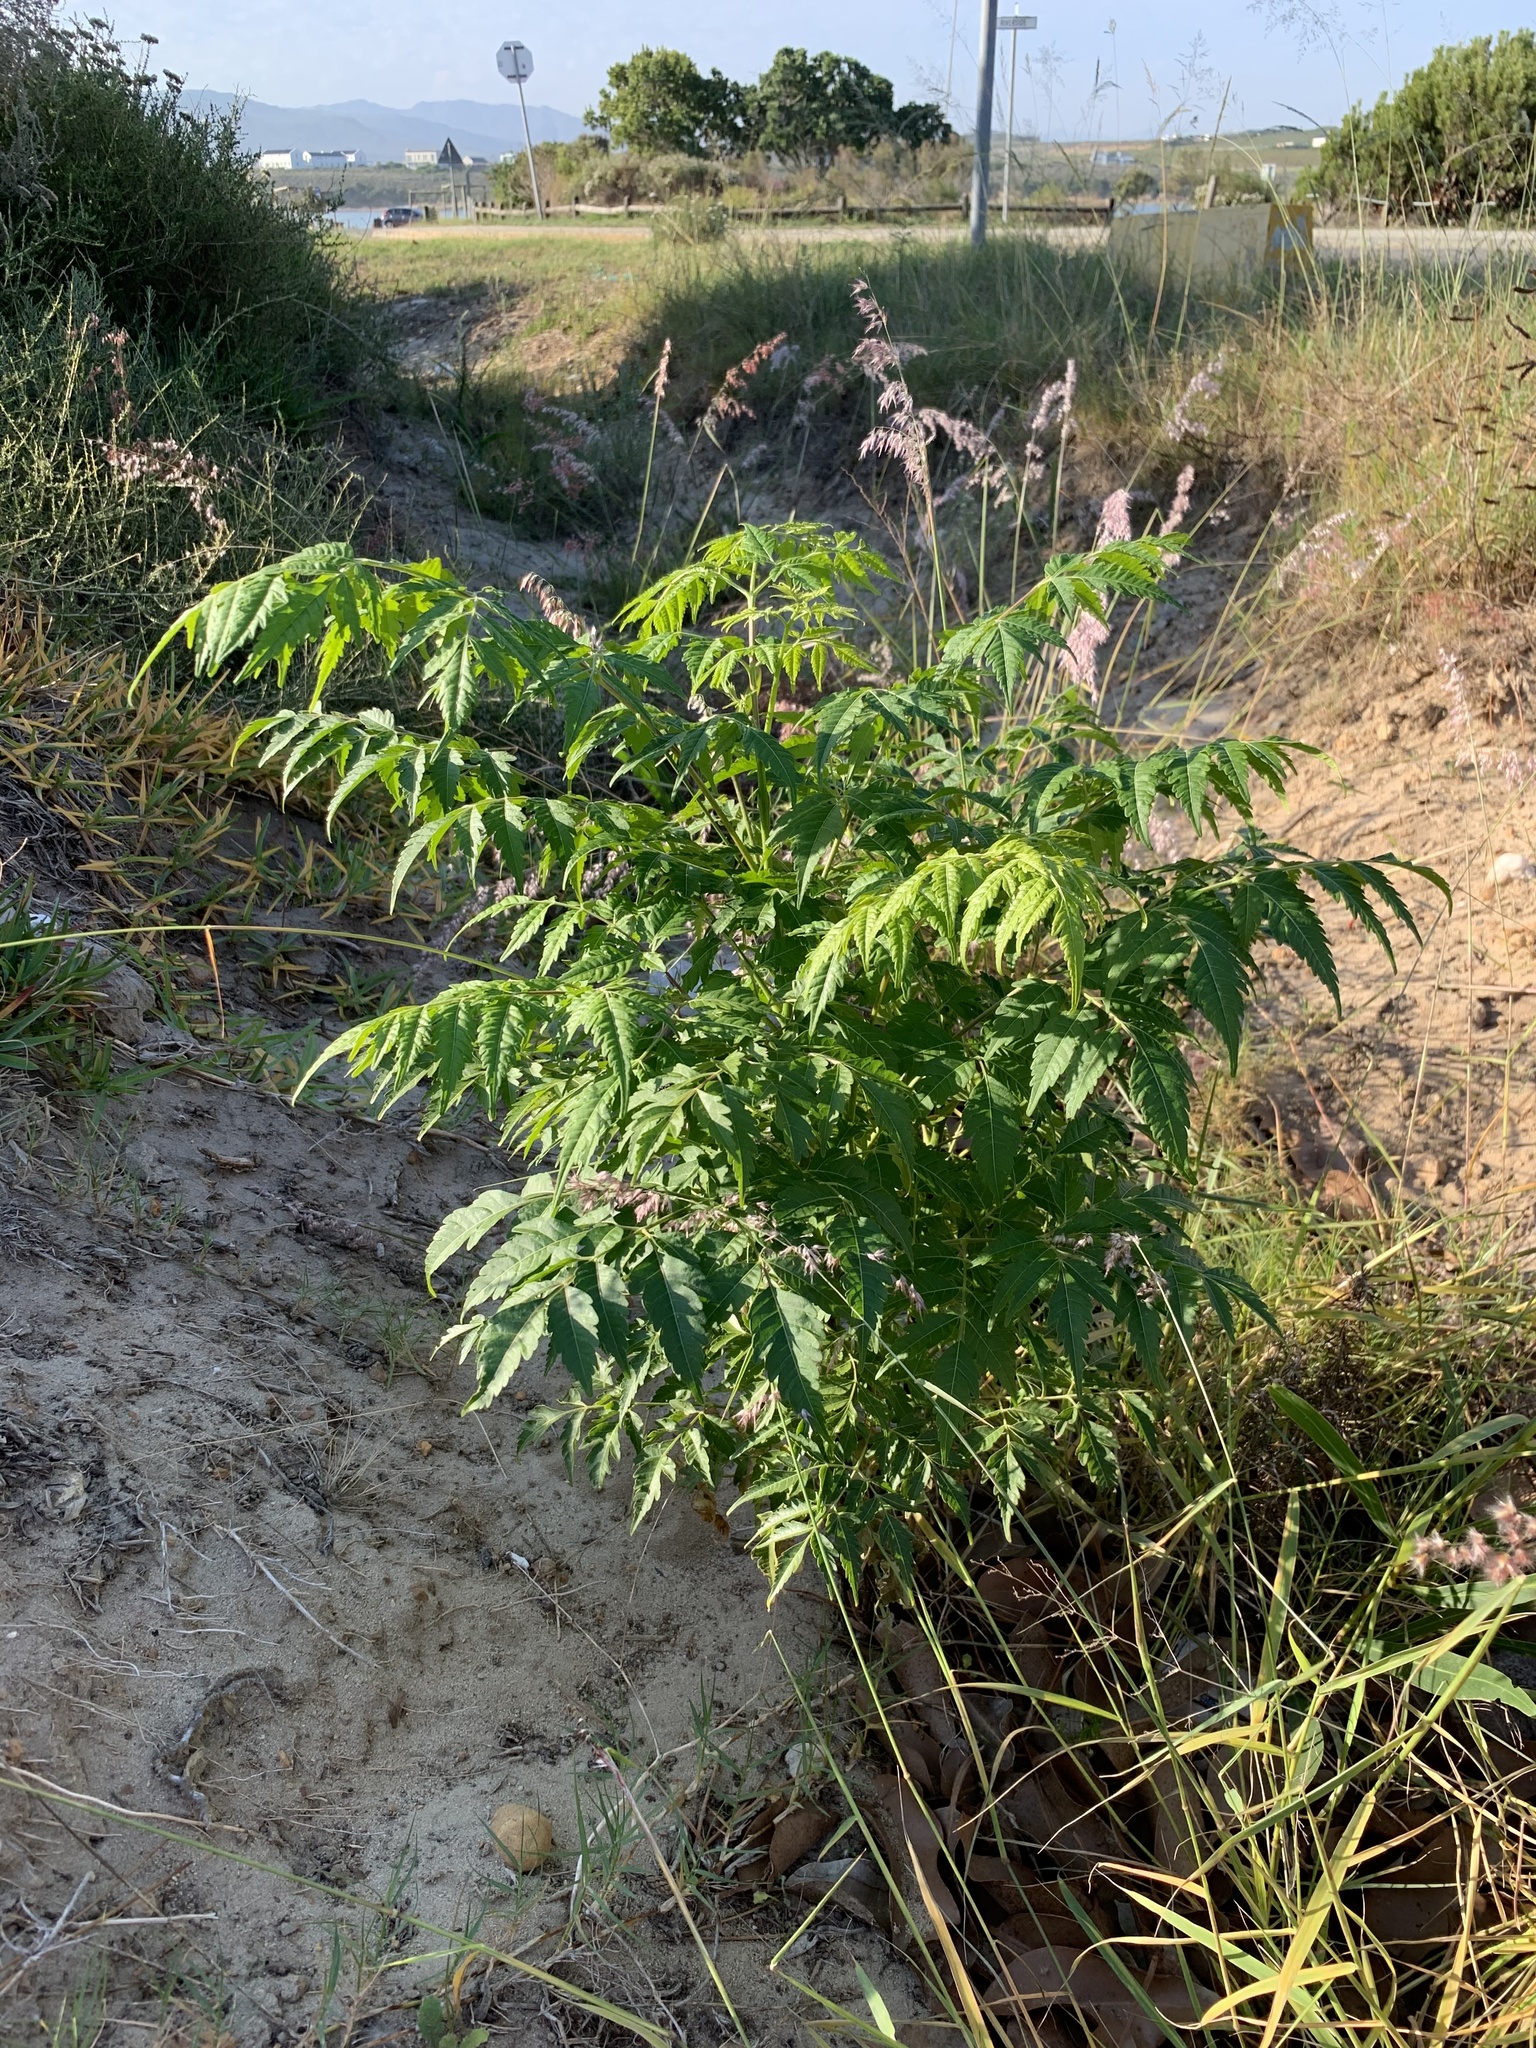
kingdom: Plantae
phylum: Tracheophyta
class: Magnoliopsida
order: Sapindales
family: Meliaceae
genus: Melia
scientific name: Melia azedarach
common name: Chinaberrytree
